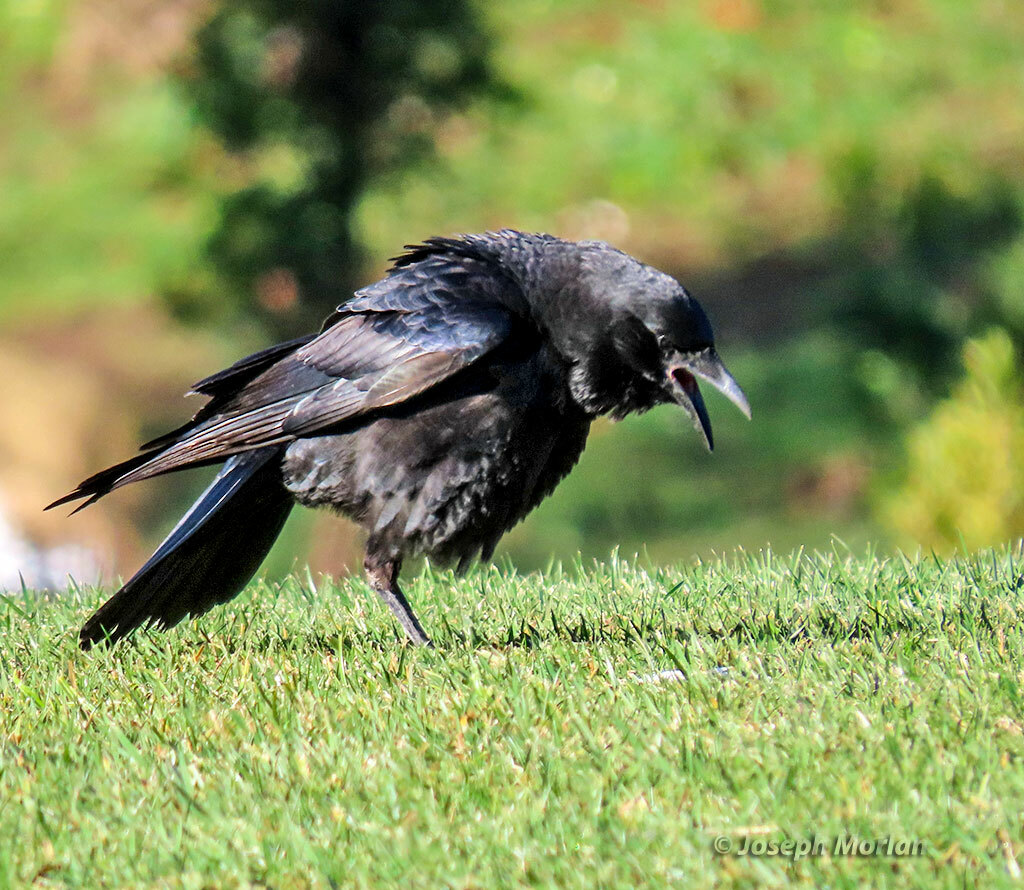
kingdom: Animalia
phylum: Chordata
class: Aves
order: Passeriformes
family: Corvidae
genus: Corvus
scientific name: Corvus corax
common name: Common raven
